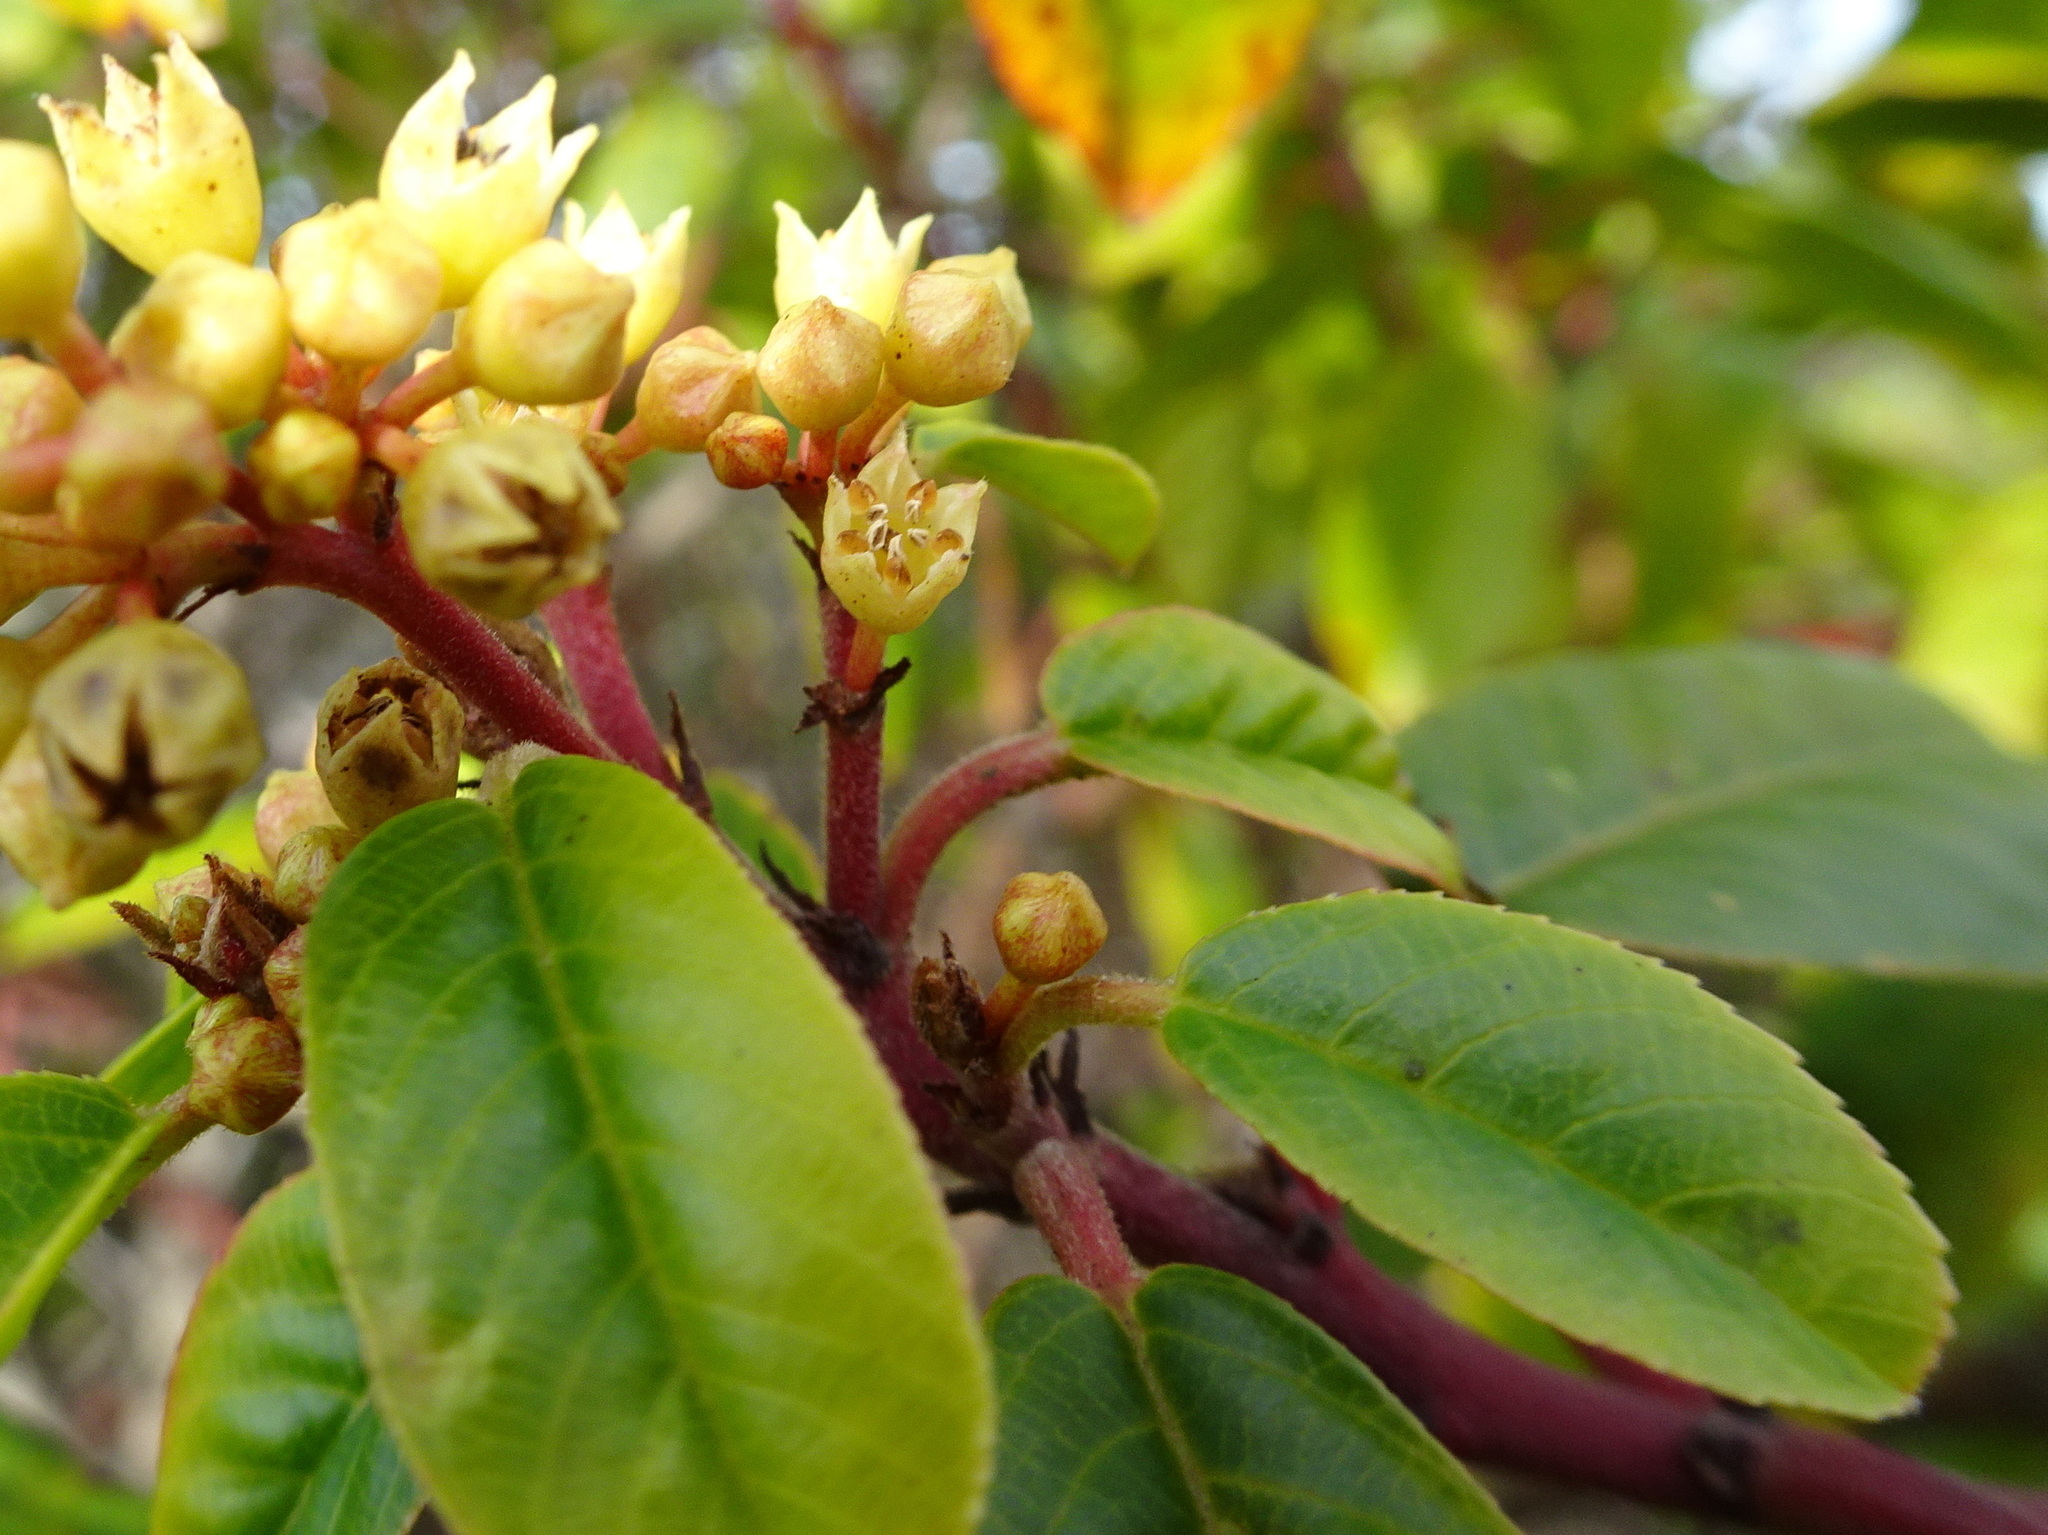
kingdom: Plantae
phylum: Tracheophyta
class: Magnoliopsida
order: Rosales
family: Rhamnaceae
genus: Frangula
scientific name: Frangula californica
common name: California buckthorn
